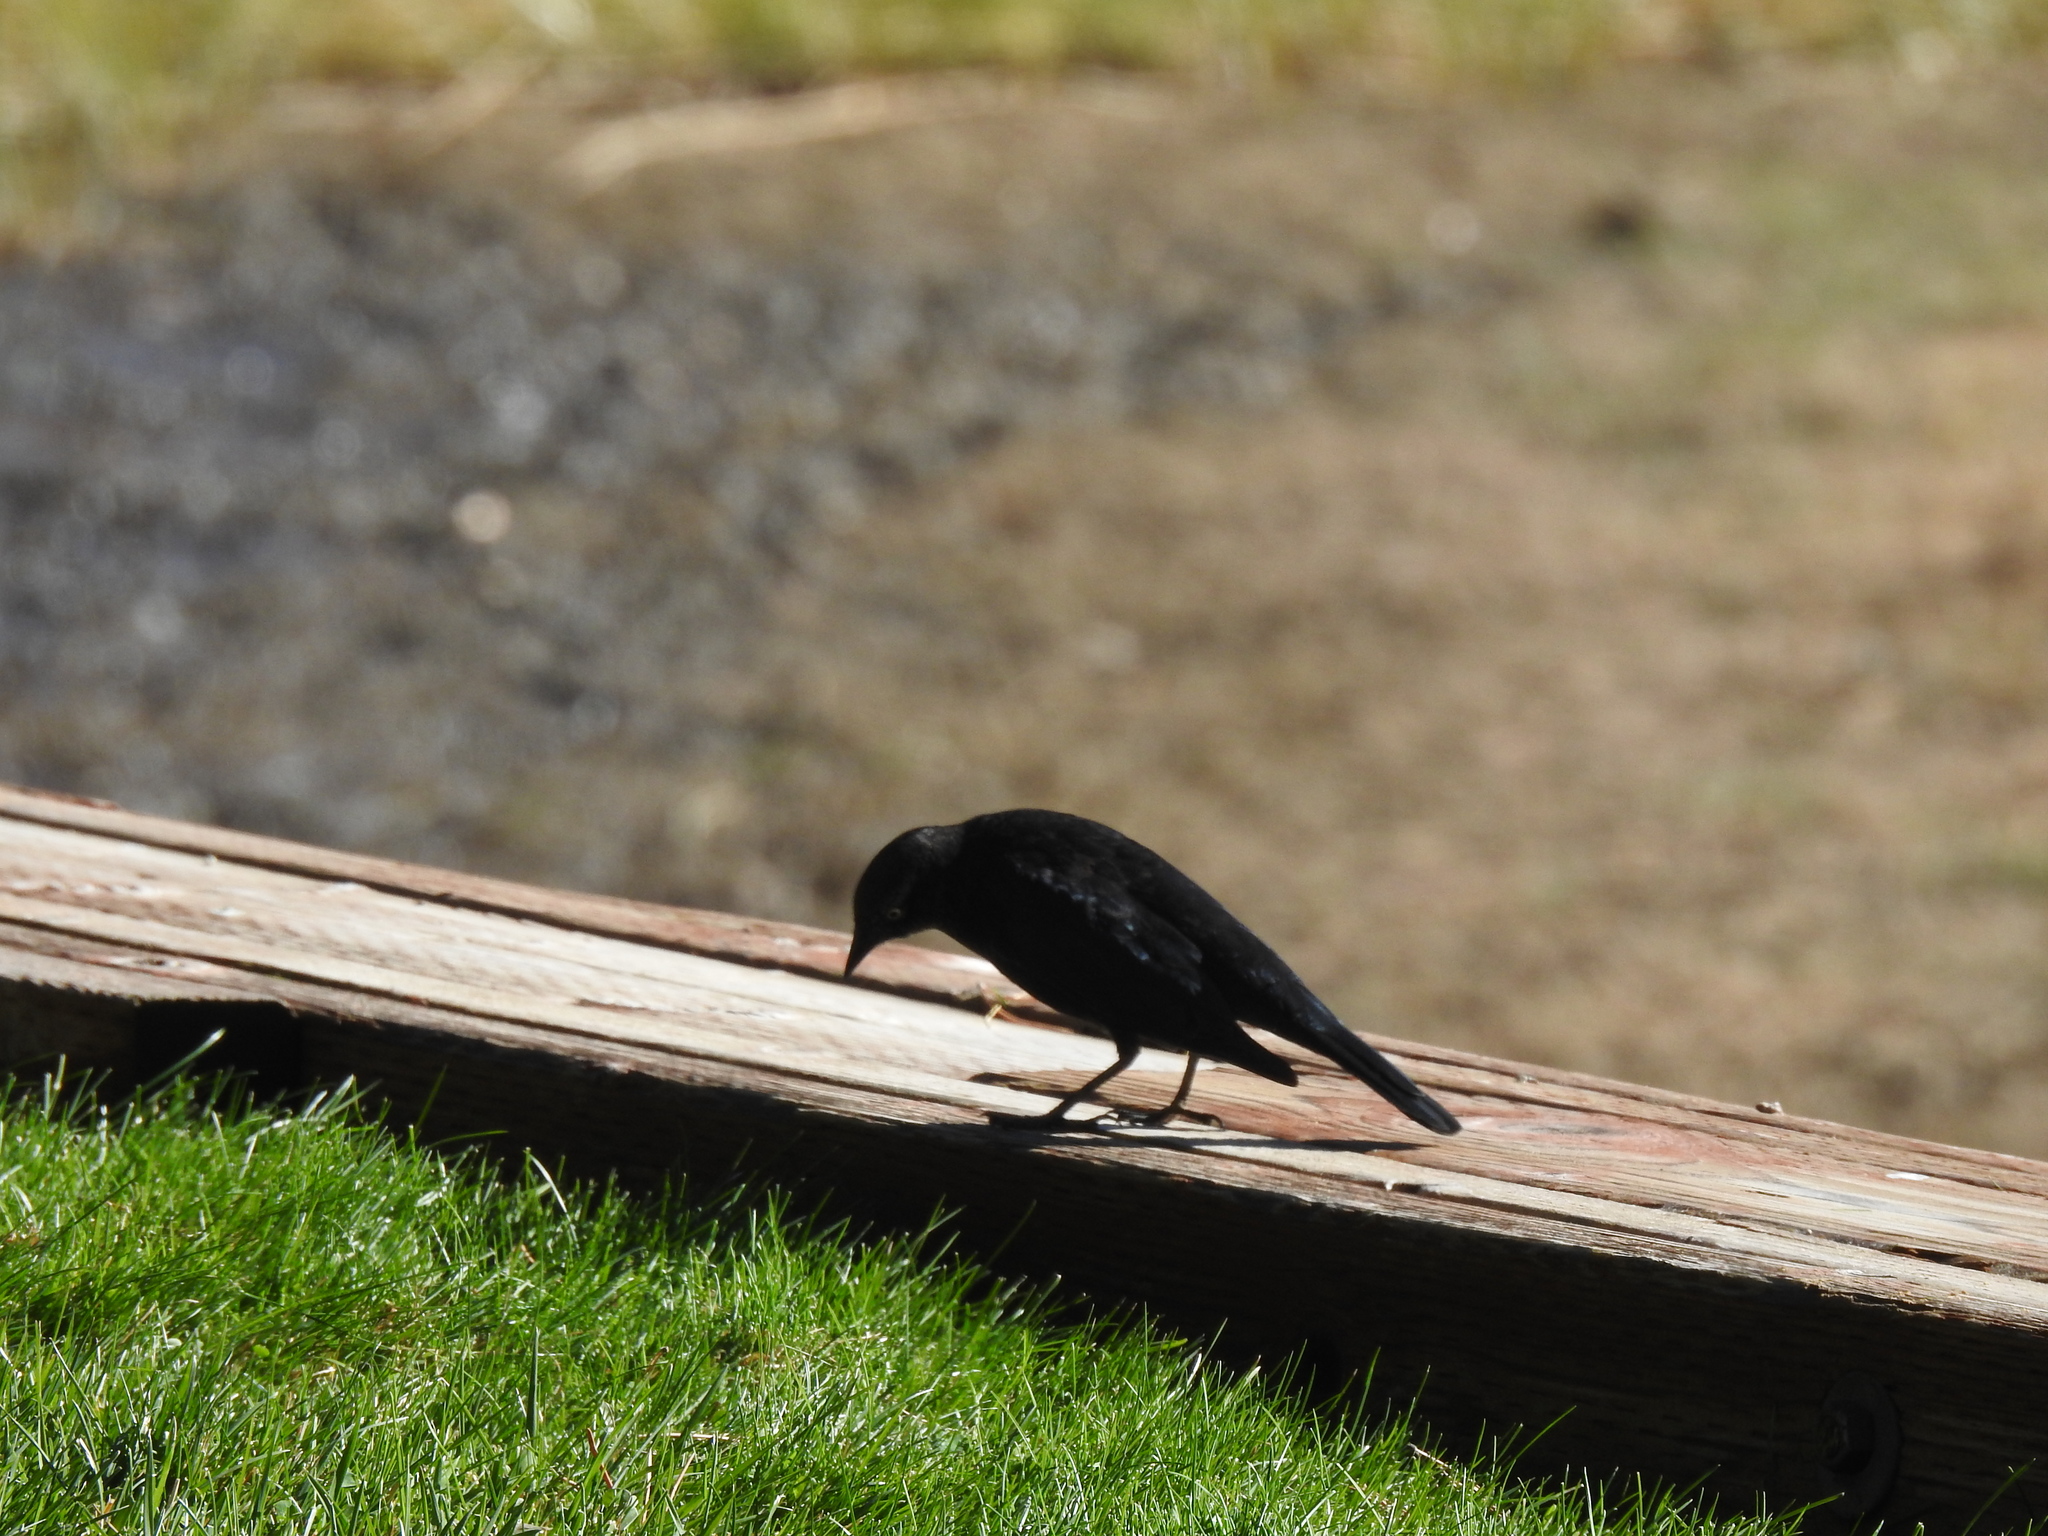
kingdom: Animalia
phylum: Chordata
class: Aves
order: Passeriformes
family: Icteridae
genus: Euphagus
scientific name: Euphagus cyanocephalus
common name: Brewer's blackbird
